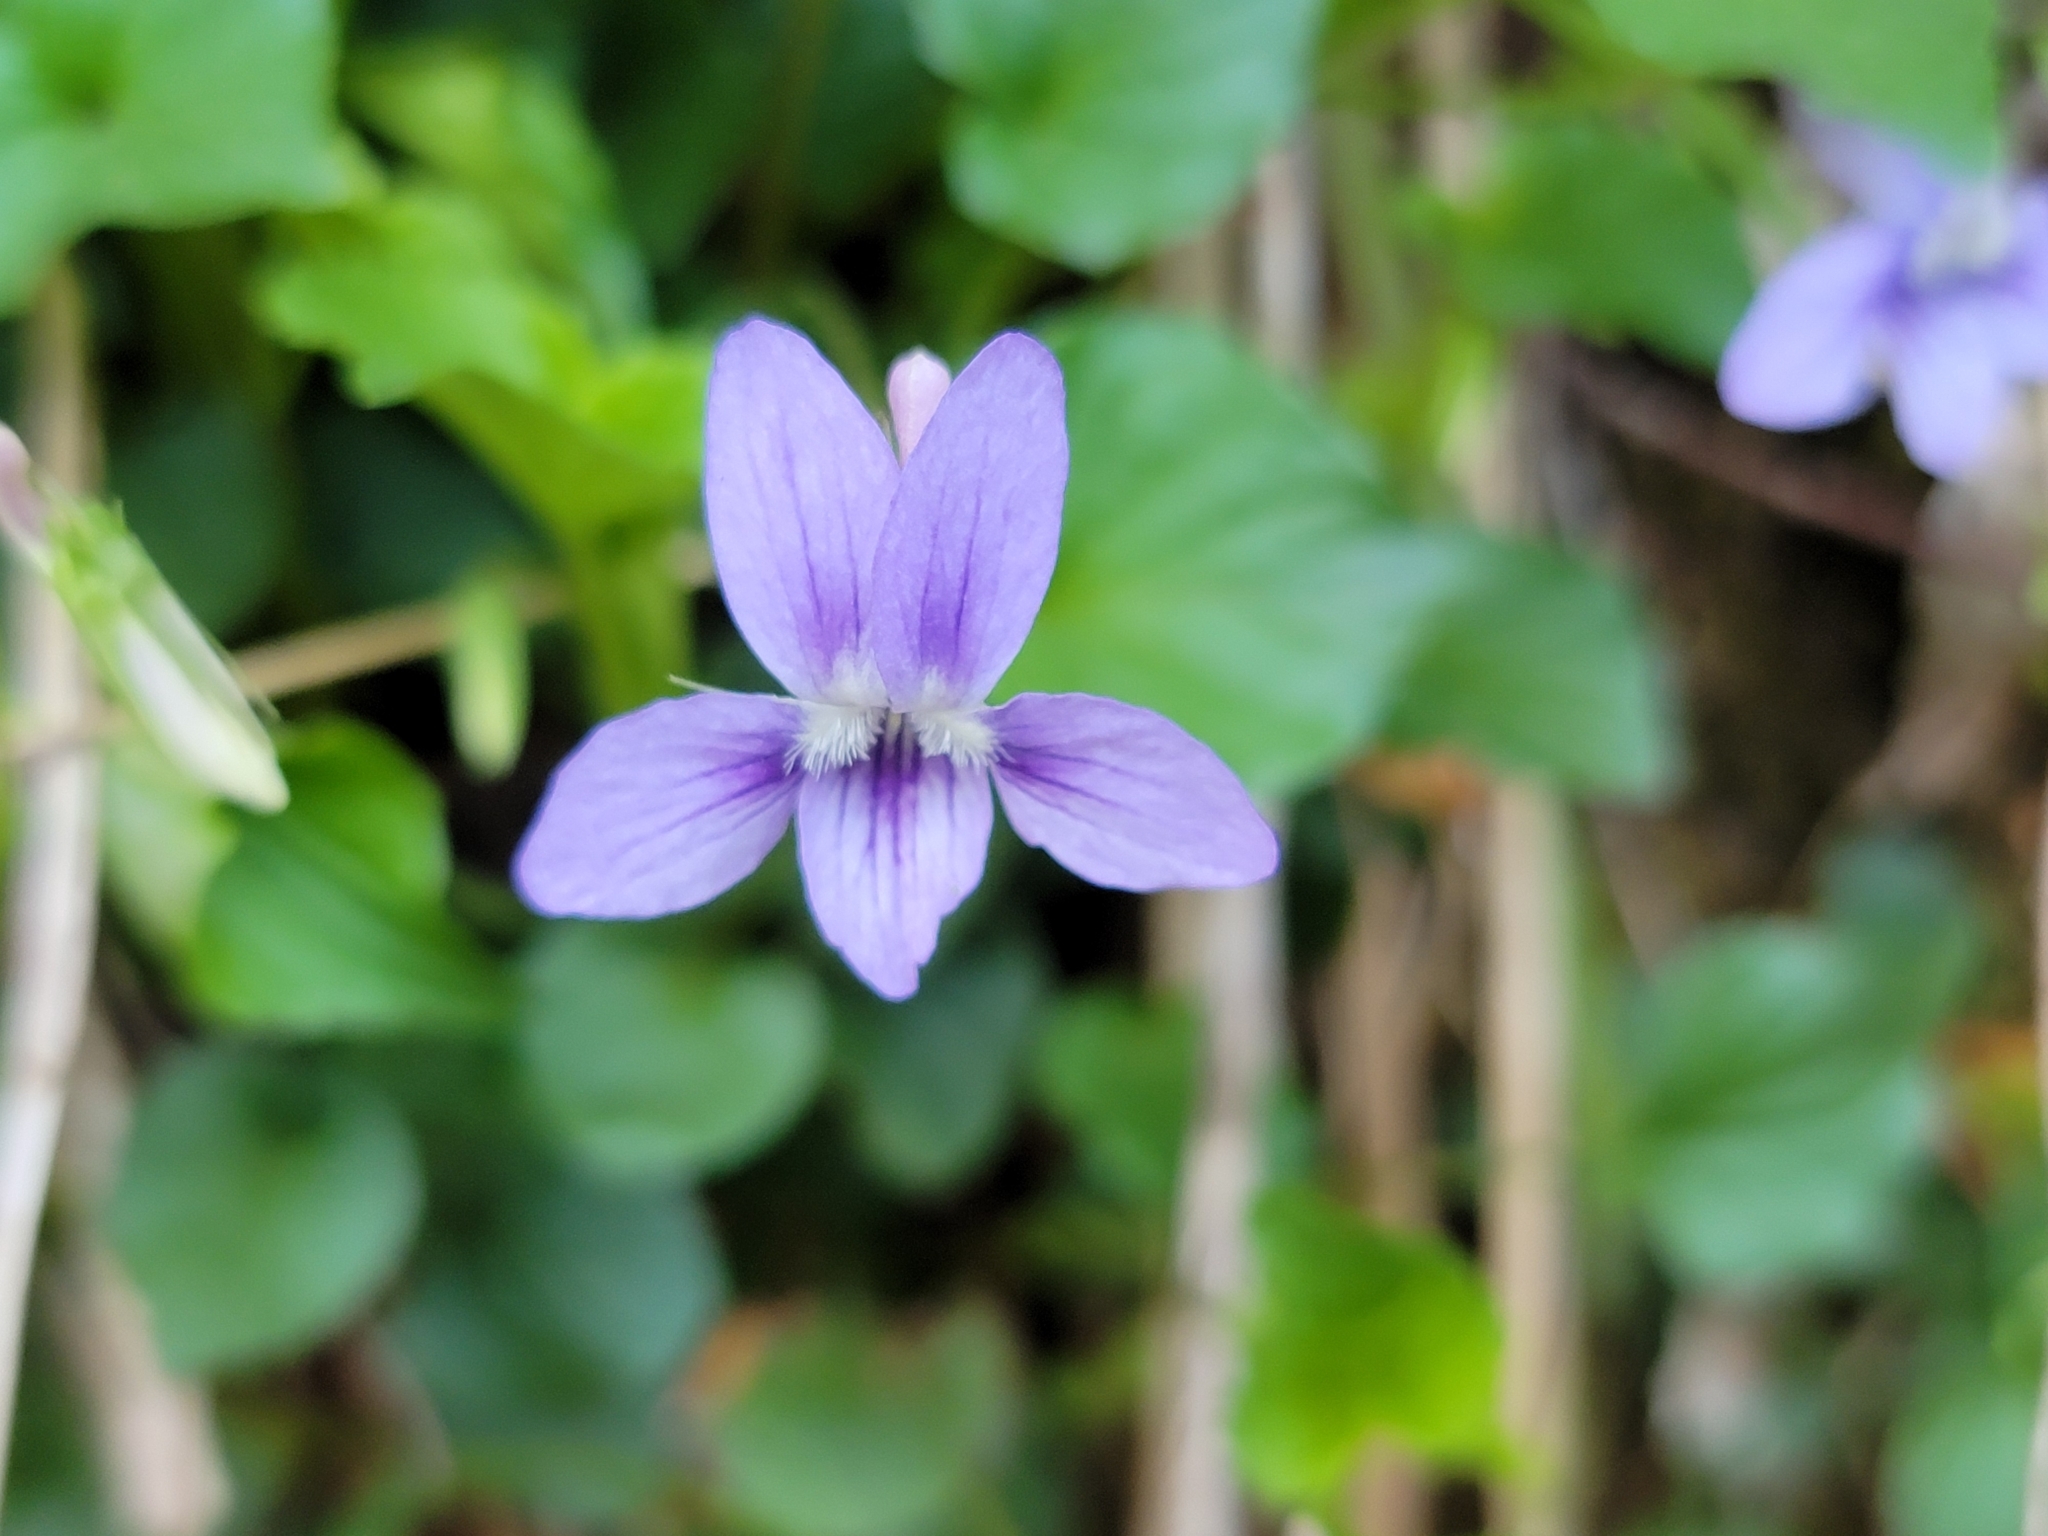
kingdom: Plantae
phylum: Tracheophyta
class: Magnoliopsida
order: Malpighiales
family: Violaceae
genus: Viola
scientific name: Viola brauniae
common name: Braun's violet
